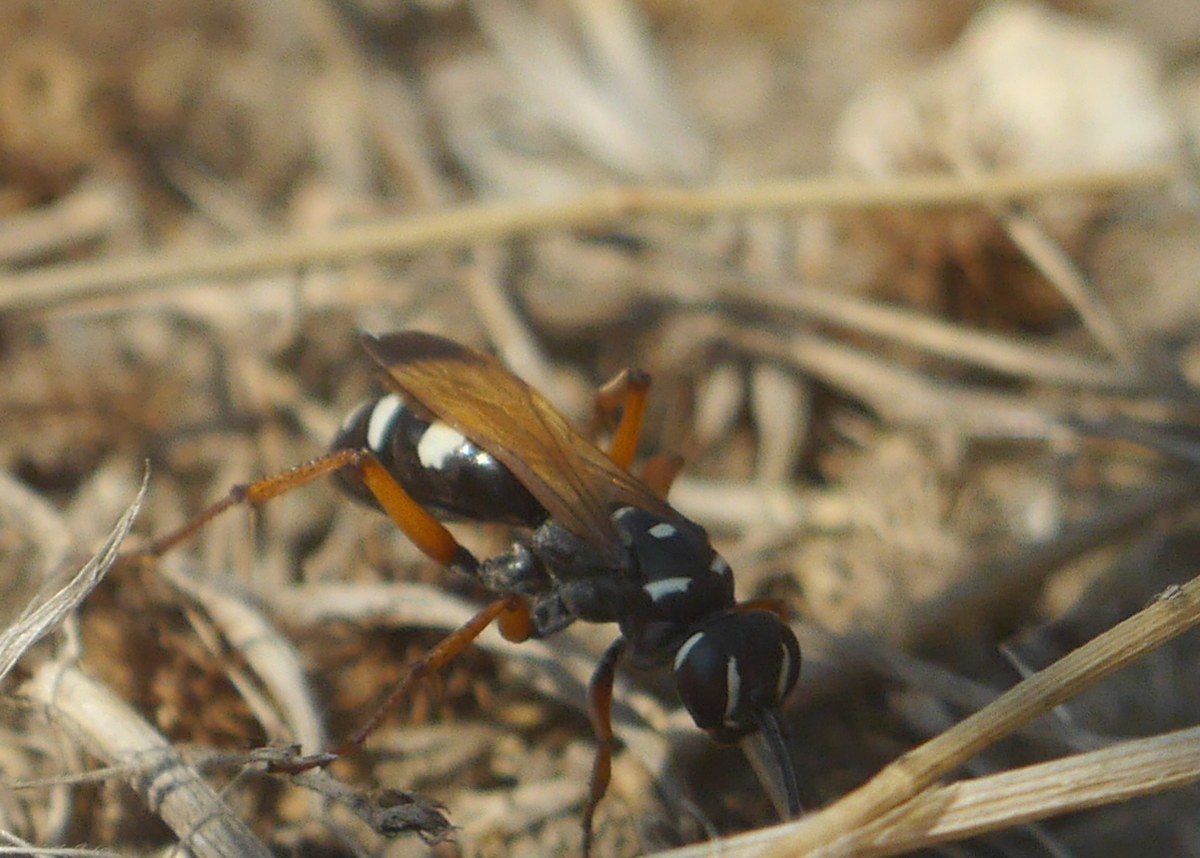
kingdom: Animalia
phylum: Arthropoda
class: Insecta
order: Hymenoptera
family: Pompilidae
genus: Cryptocheilus
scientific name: Cryptocheilus variabilis
